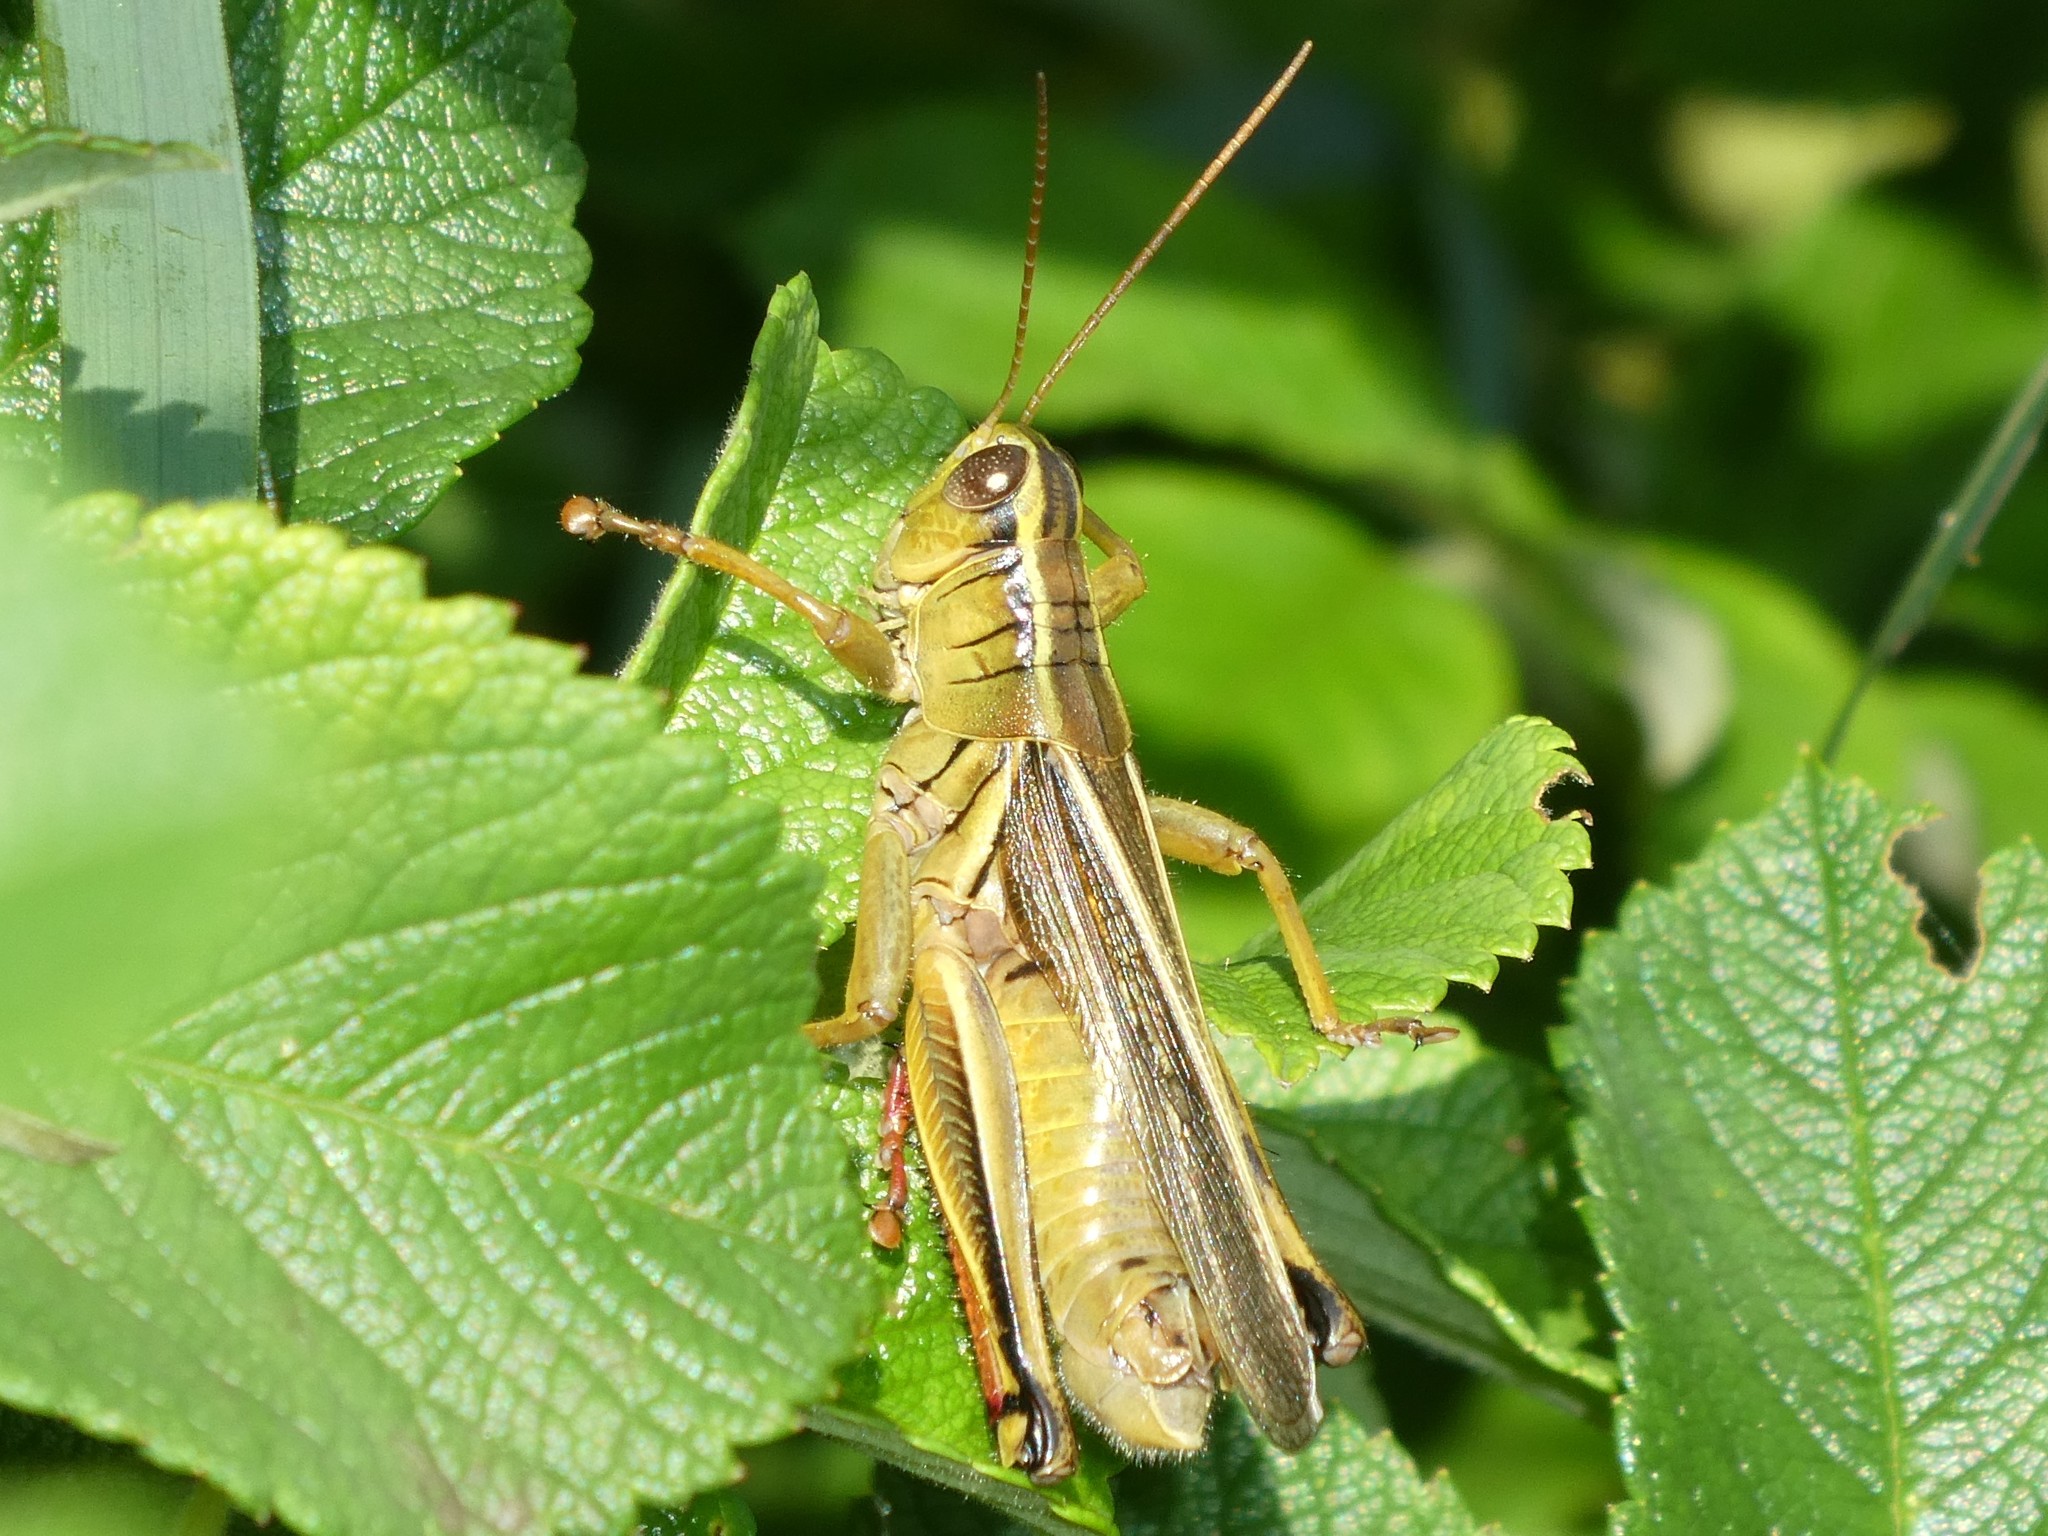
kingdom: Animalia
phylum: Arthropoda
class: Insecta
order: Orthoptera
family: Acrididae
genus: Melanoplus
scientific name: Melanoplus bivittatus
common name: Two-striped grasshopper
